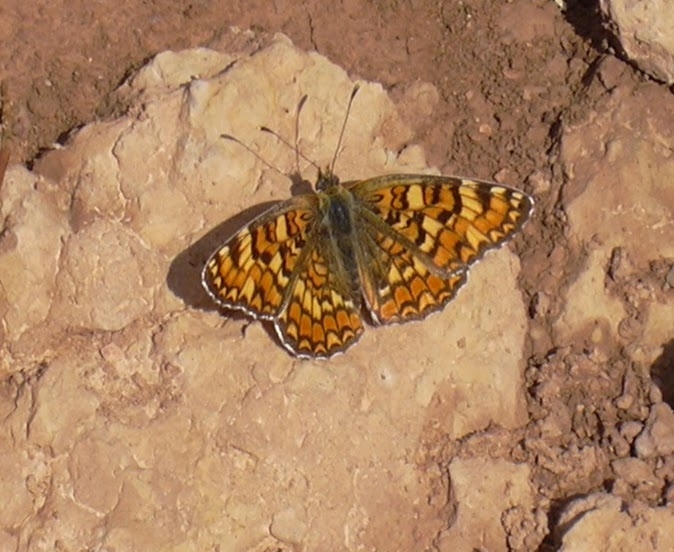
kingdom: Animalia
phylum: Arthropoda
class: Insecta
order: Lepidoptera
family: Nymphalidae
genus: Melitaea
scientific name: Melitaea phoebe
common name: Knapweed fritillary
